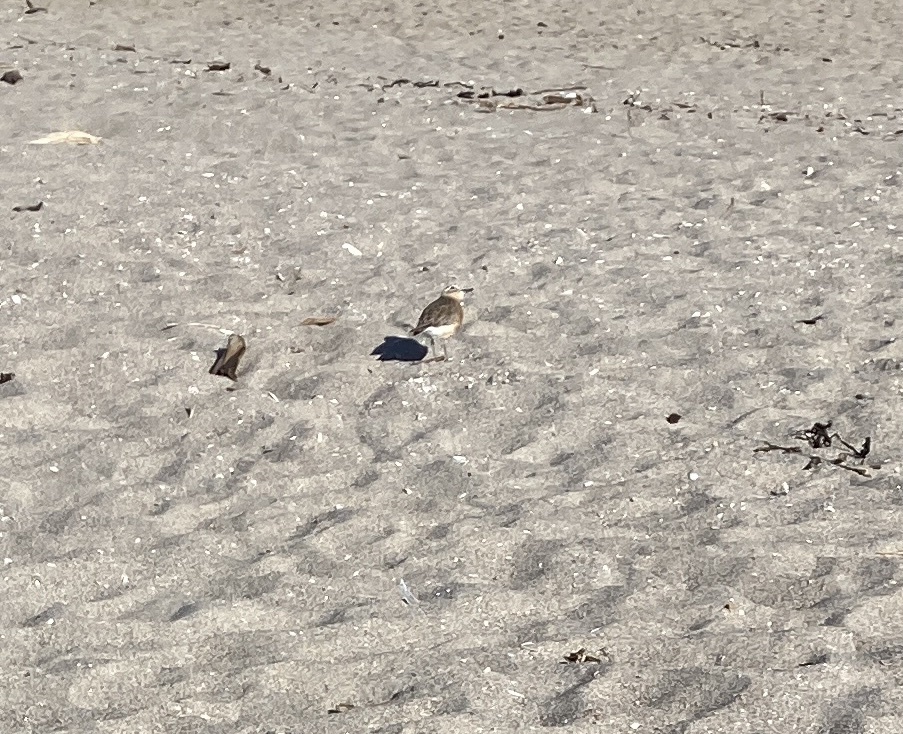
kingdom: Animalia
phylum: Chordata
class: Aves
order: Charadriiformes
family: Charadriidae
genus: Anarhynchus
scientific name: Anarhynchus
